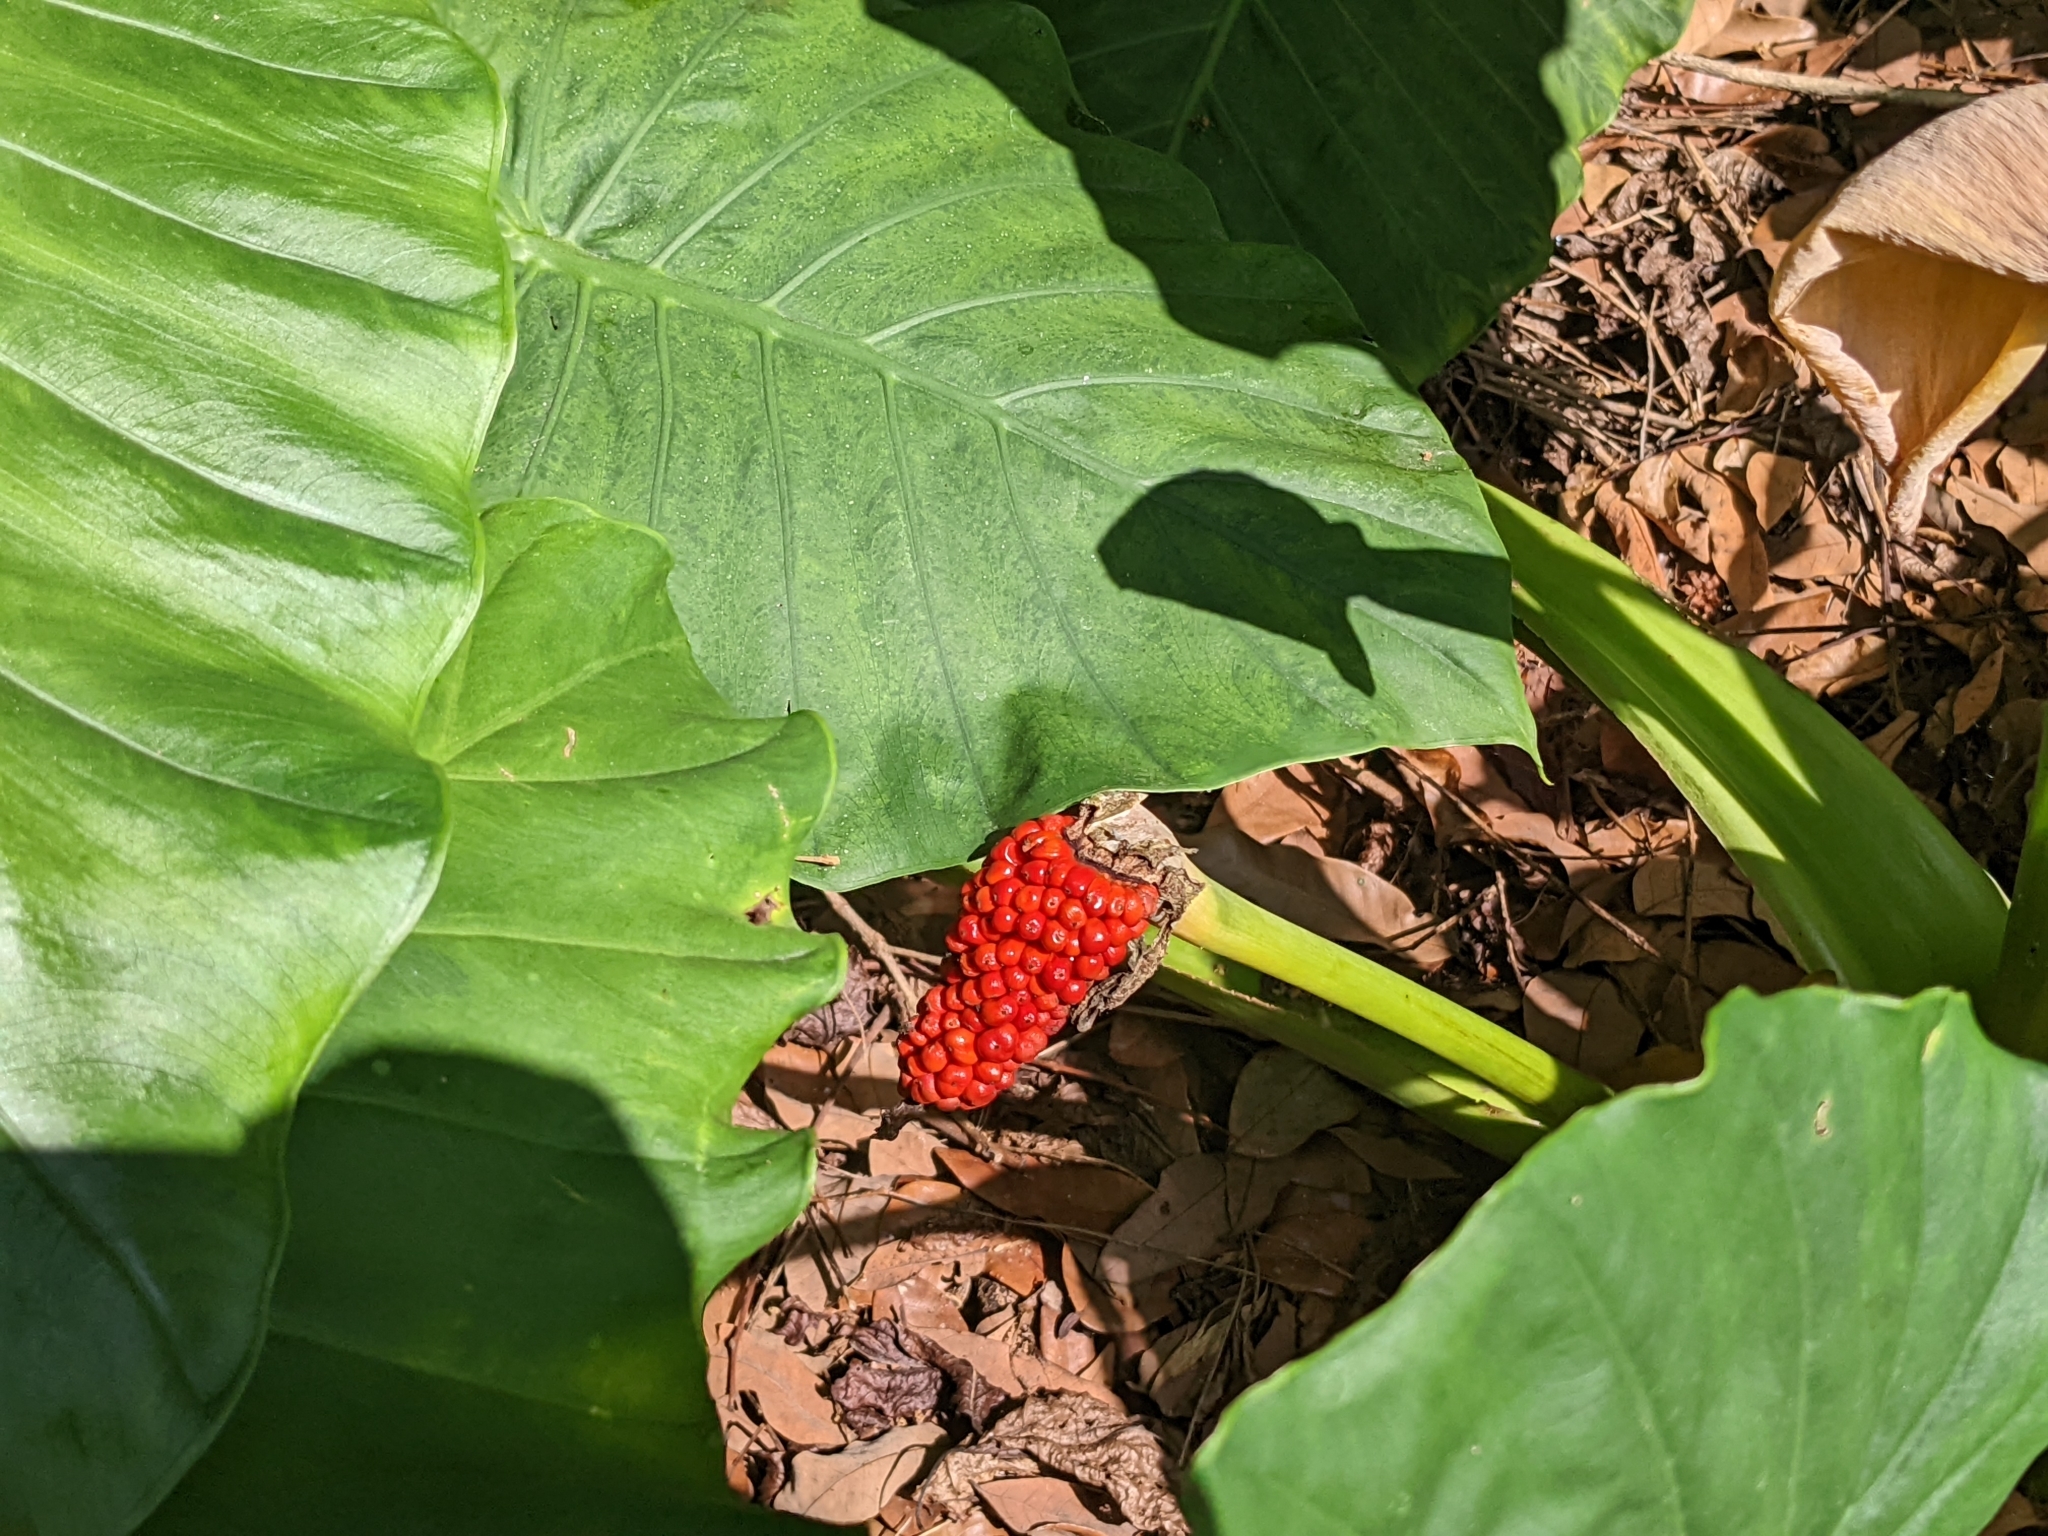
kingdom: Plantae
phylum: Tracheophyta
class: Liliopsida
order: Alismatales
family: Araceae
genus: Alocasia
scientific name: Alocasia odora
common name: Asian taro
